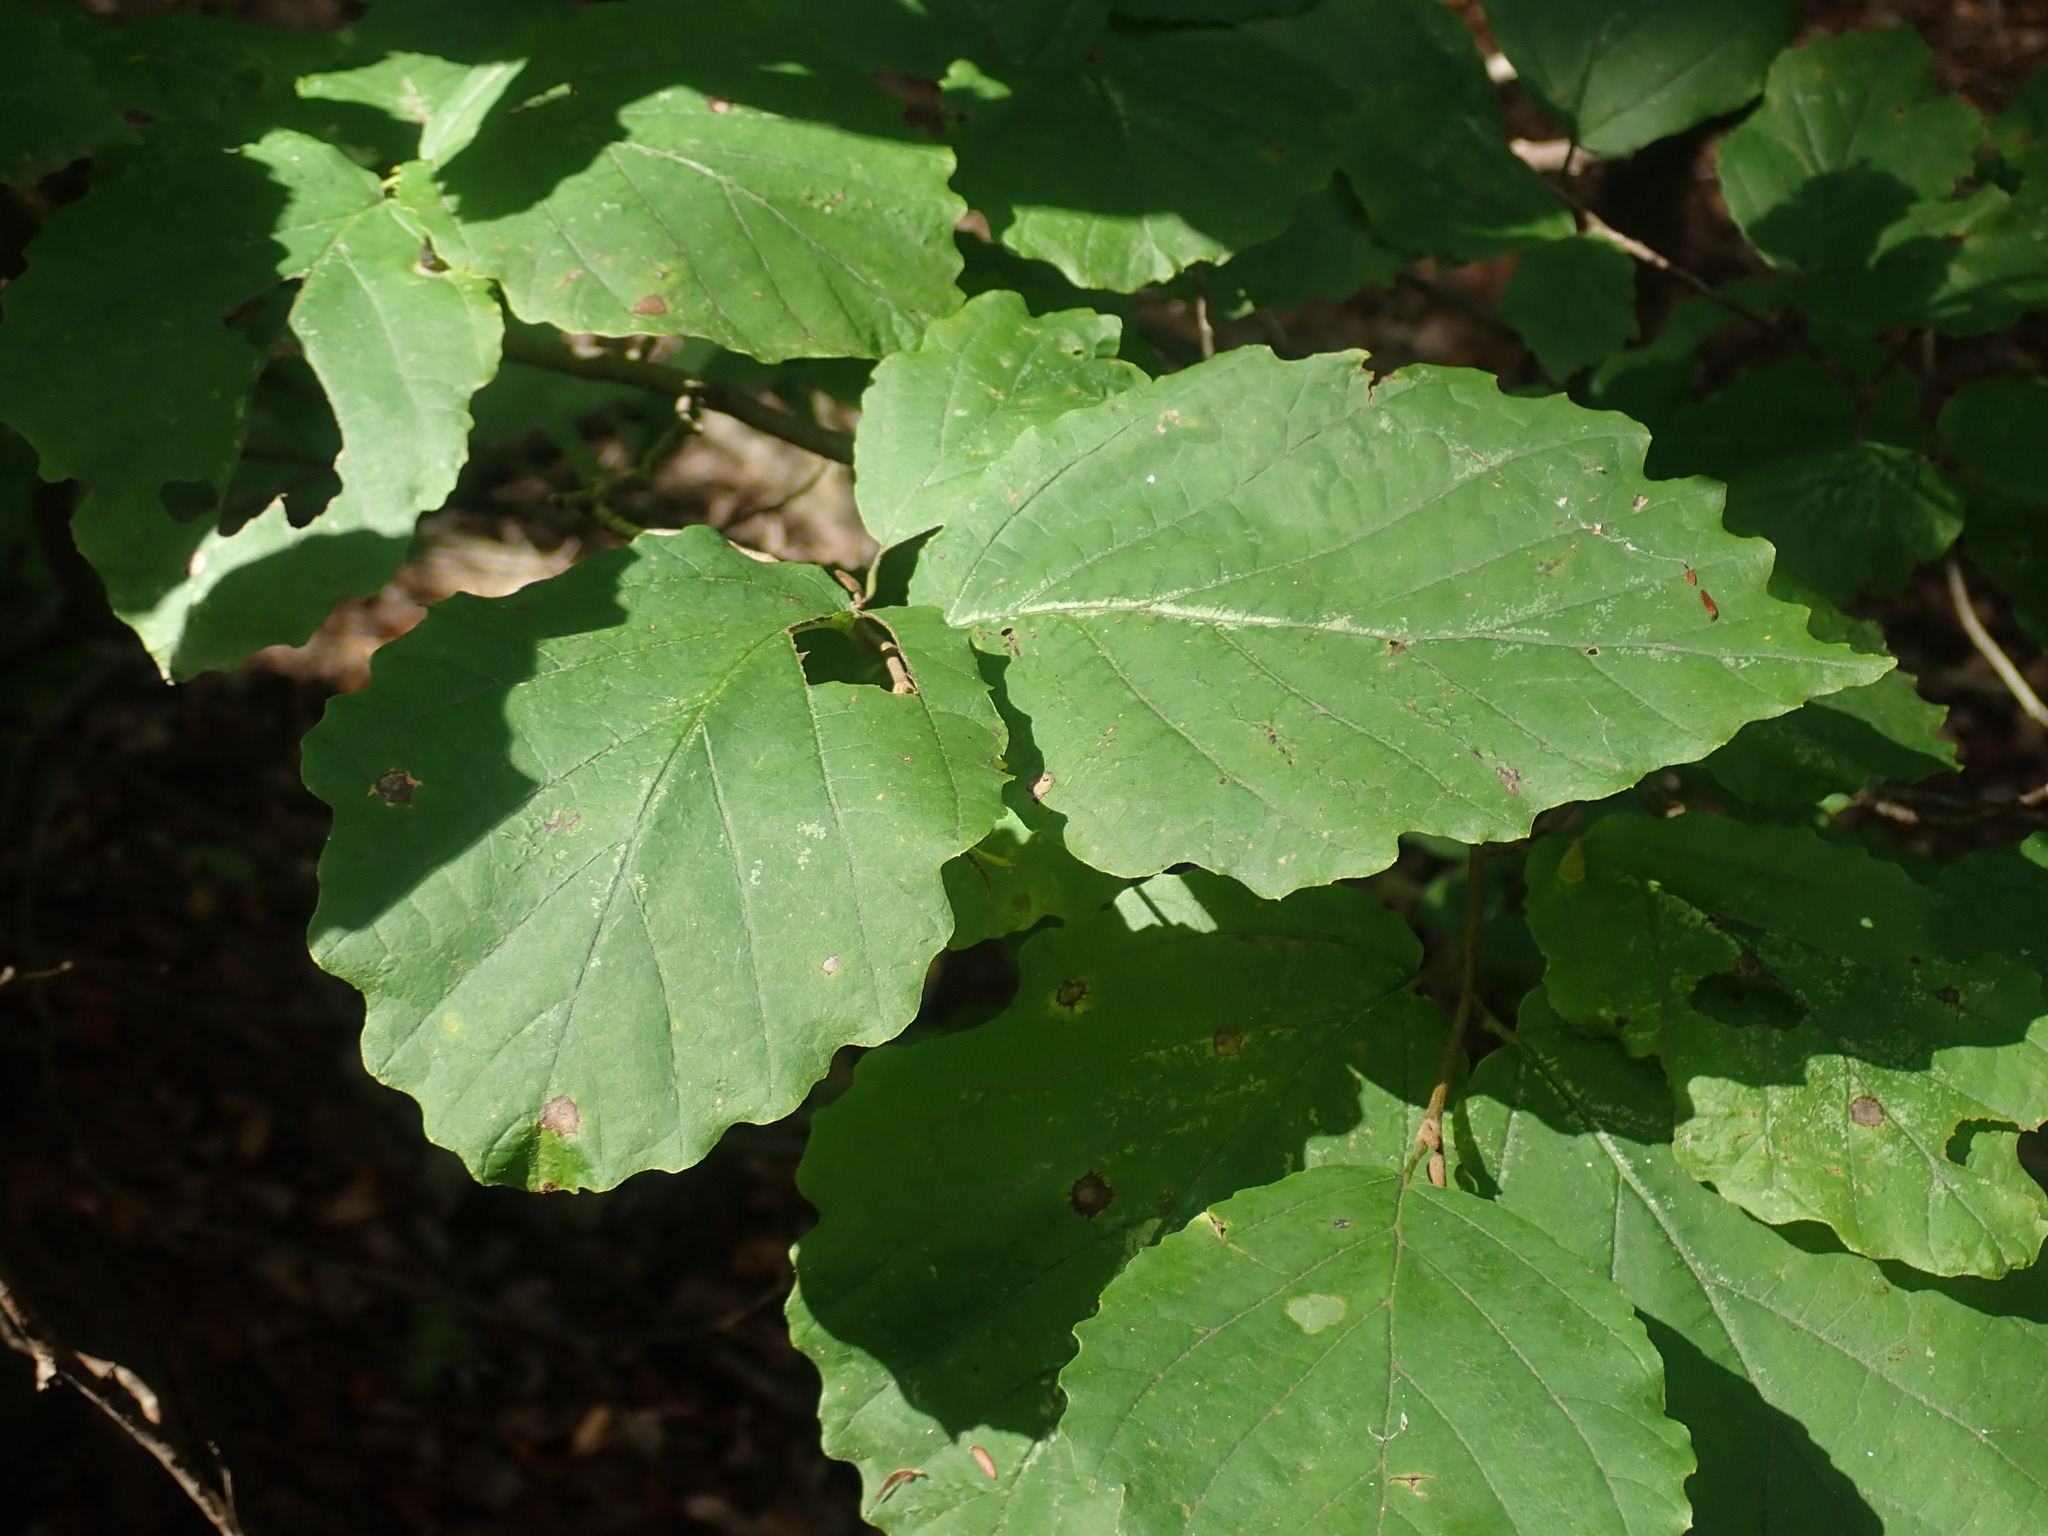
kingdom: Plantae
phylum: Tracheophyta
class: Magnoliopsida
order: Saxifragales
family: Hamamelidaceae
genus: Hamamelis
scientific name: Hamamelis virginiana
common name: Witch-hazel
